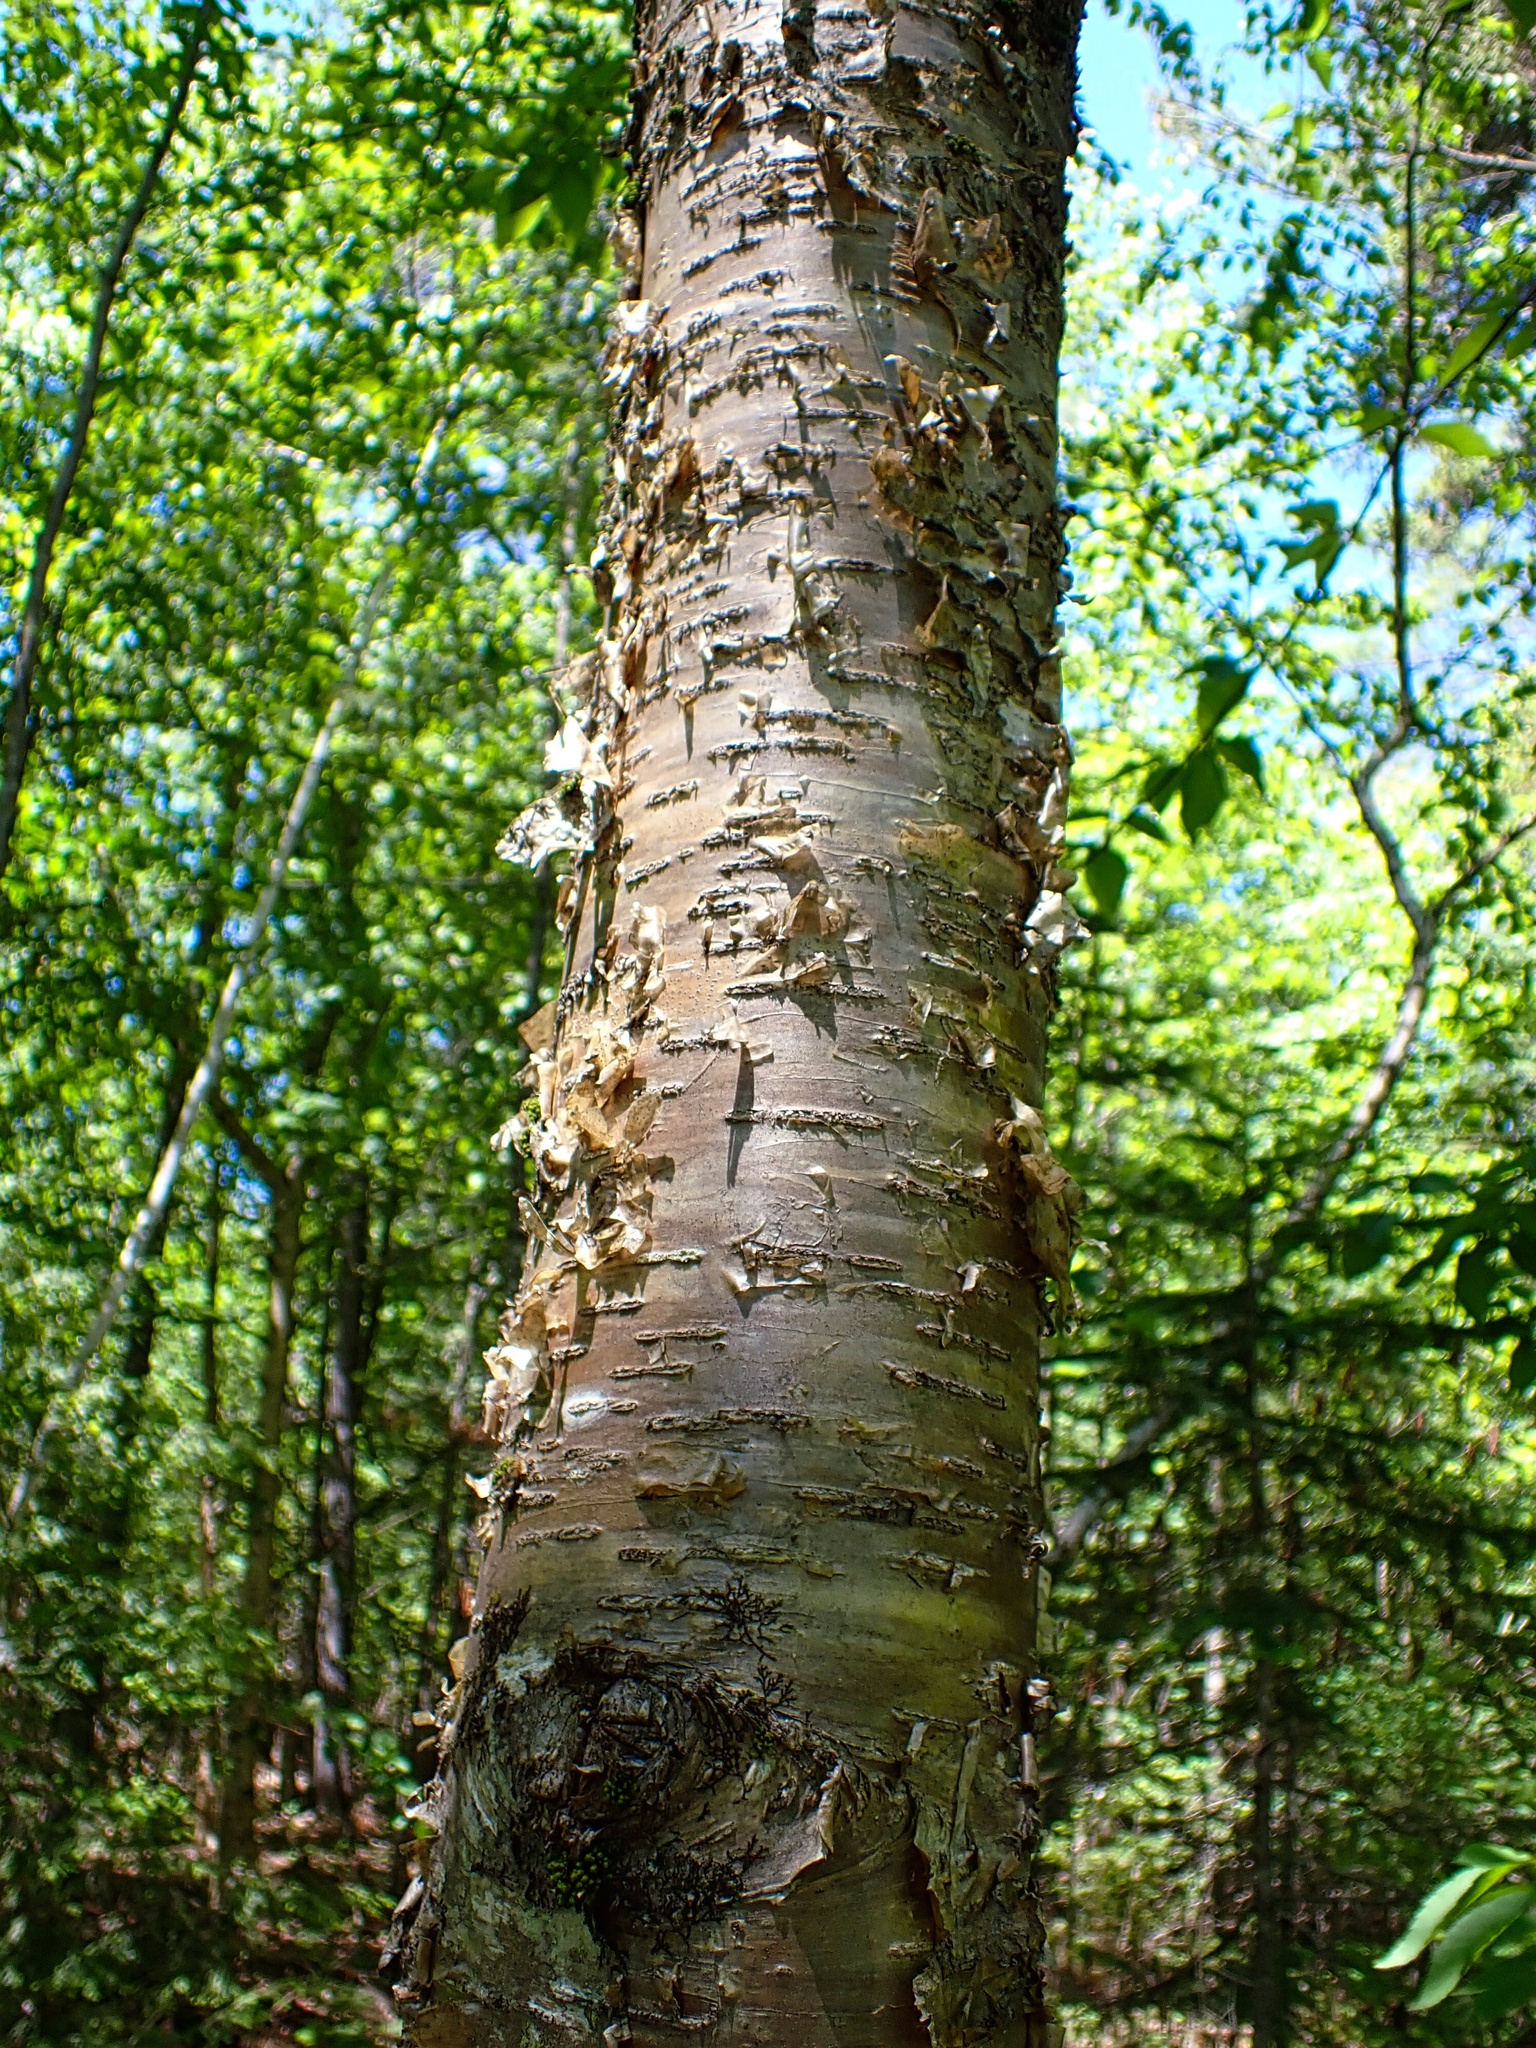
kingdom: Plantae
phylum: Tracheophyta
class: Magnoliopsida
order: Fagales
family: Betulaceae
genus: Betula
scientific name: Betula alleghaniensis
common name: Yellow birch
